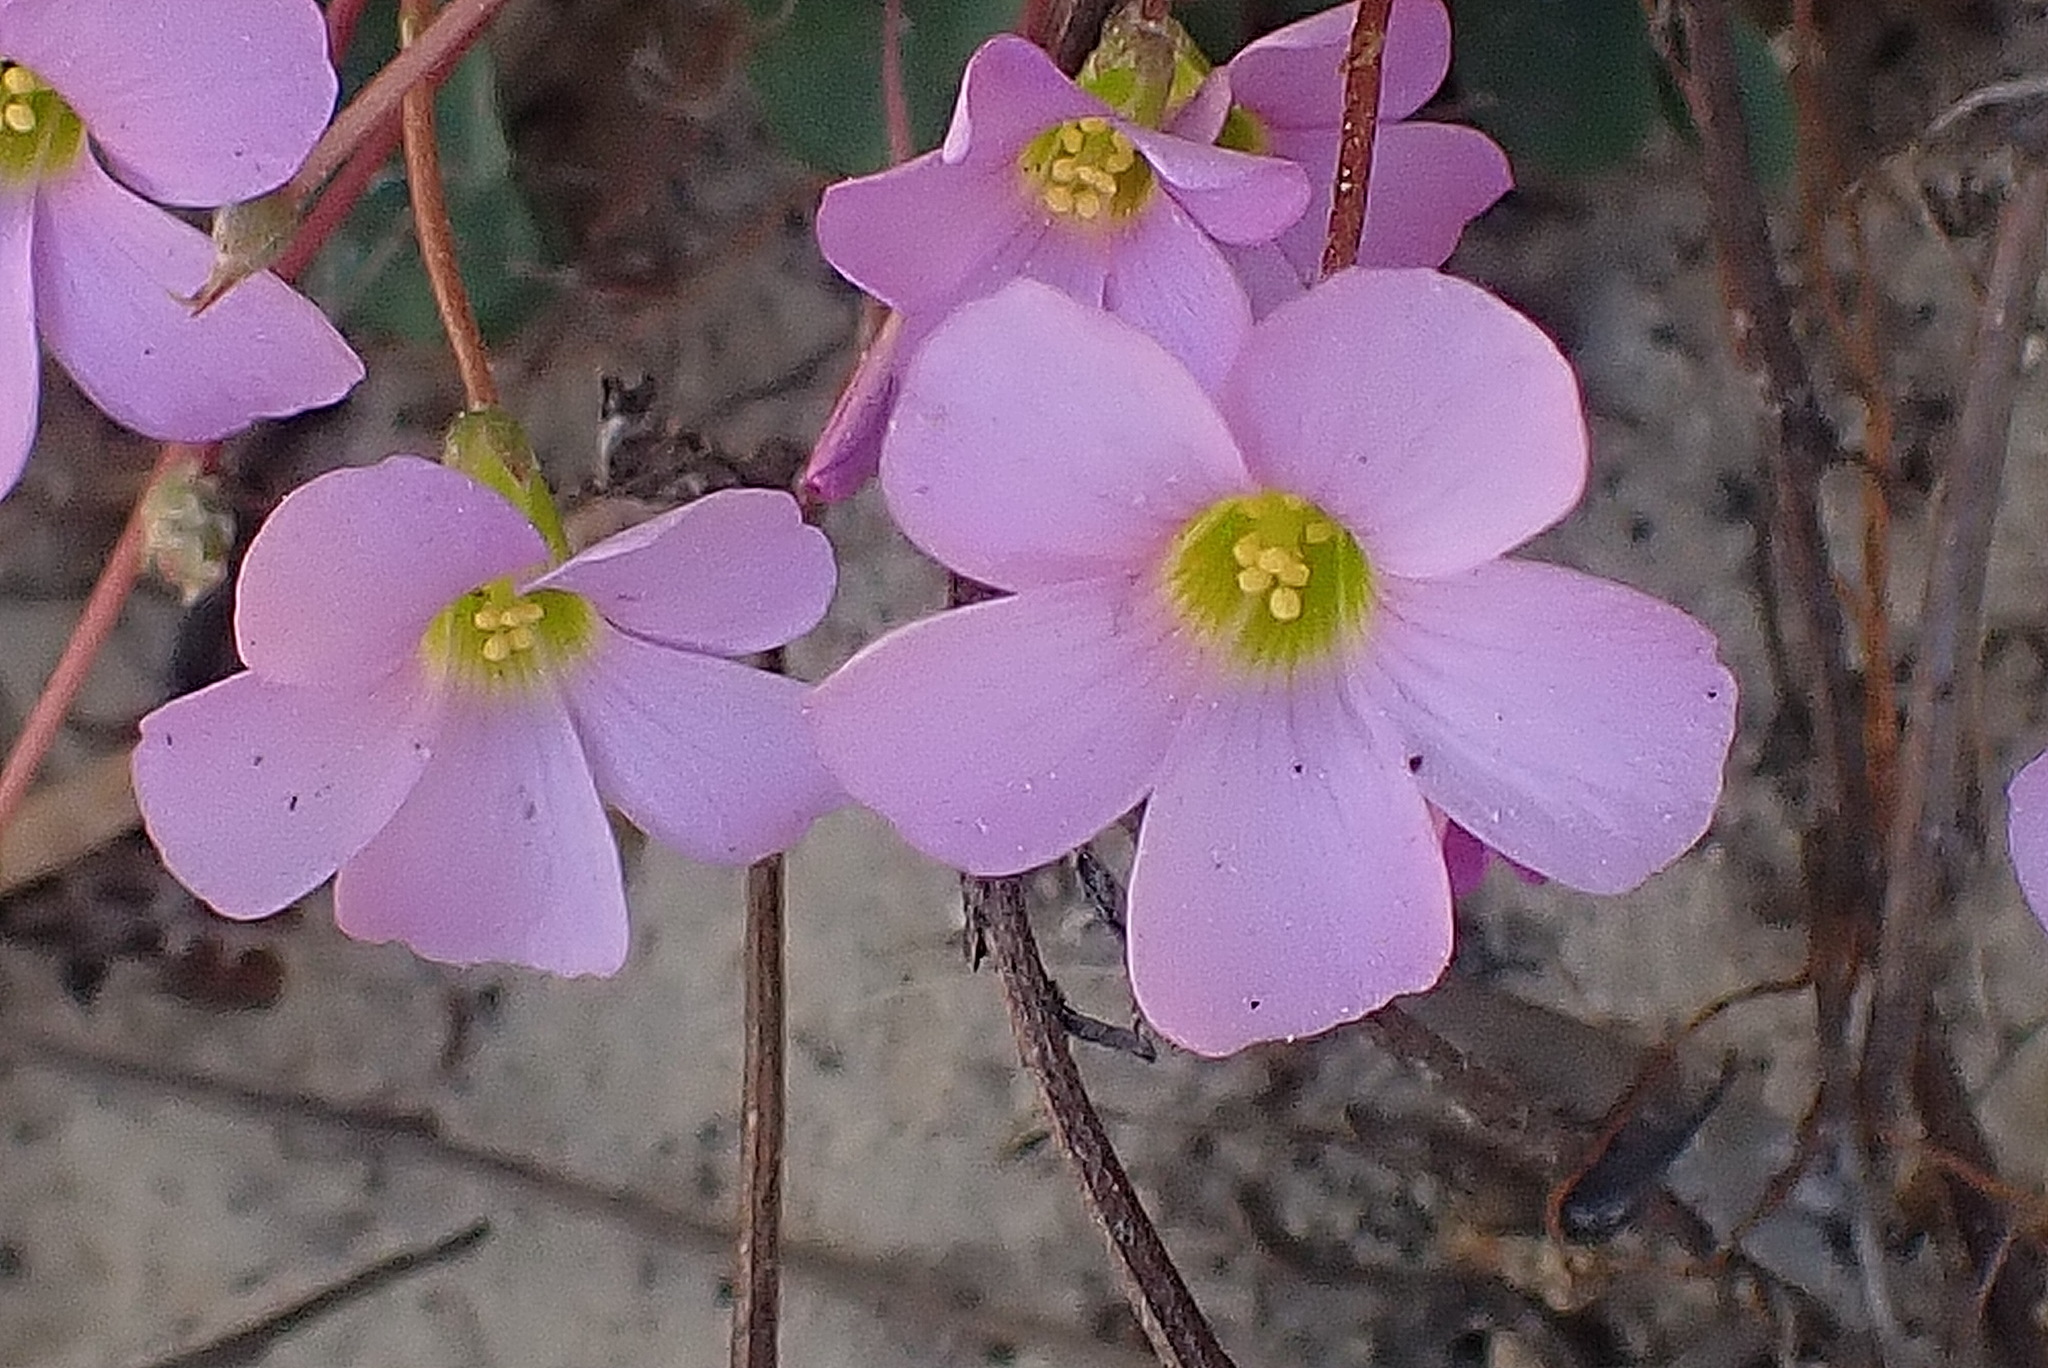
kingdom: Plantae
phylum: Tracheophyta
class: Magnoliopsida
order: Oxalidales
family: Oxalidaceae
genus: Oxalis
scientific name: Oxalis imbricata
